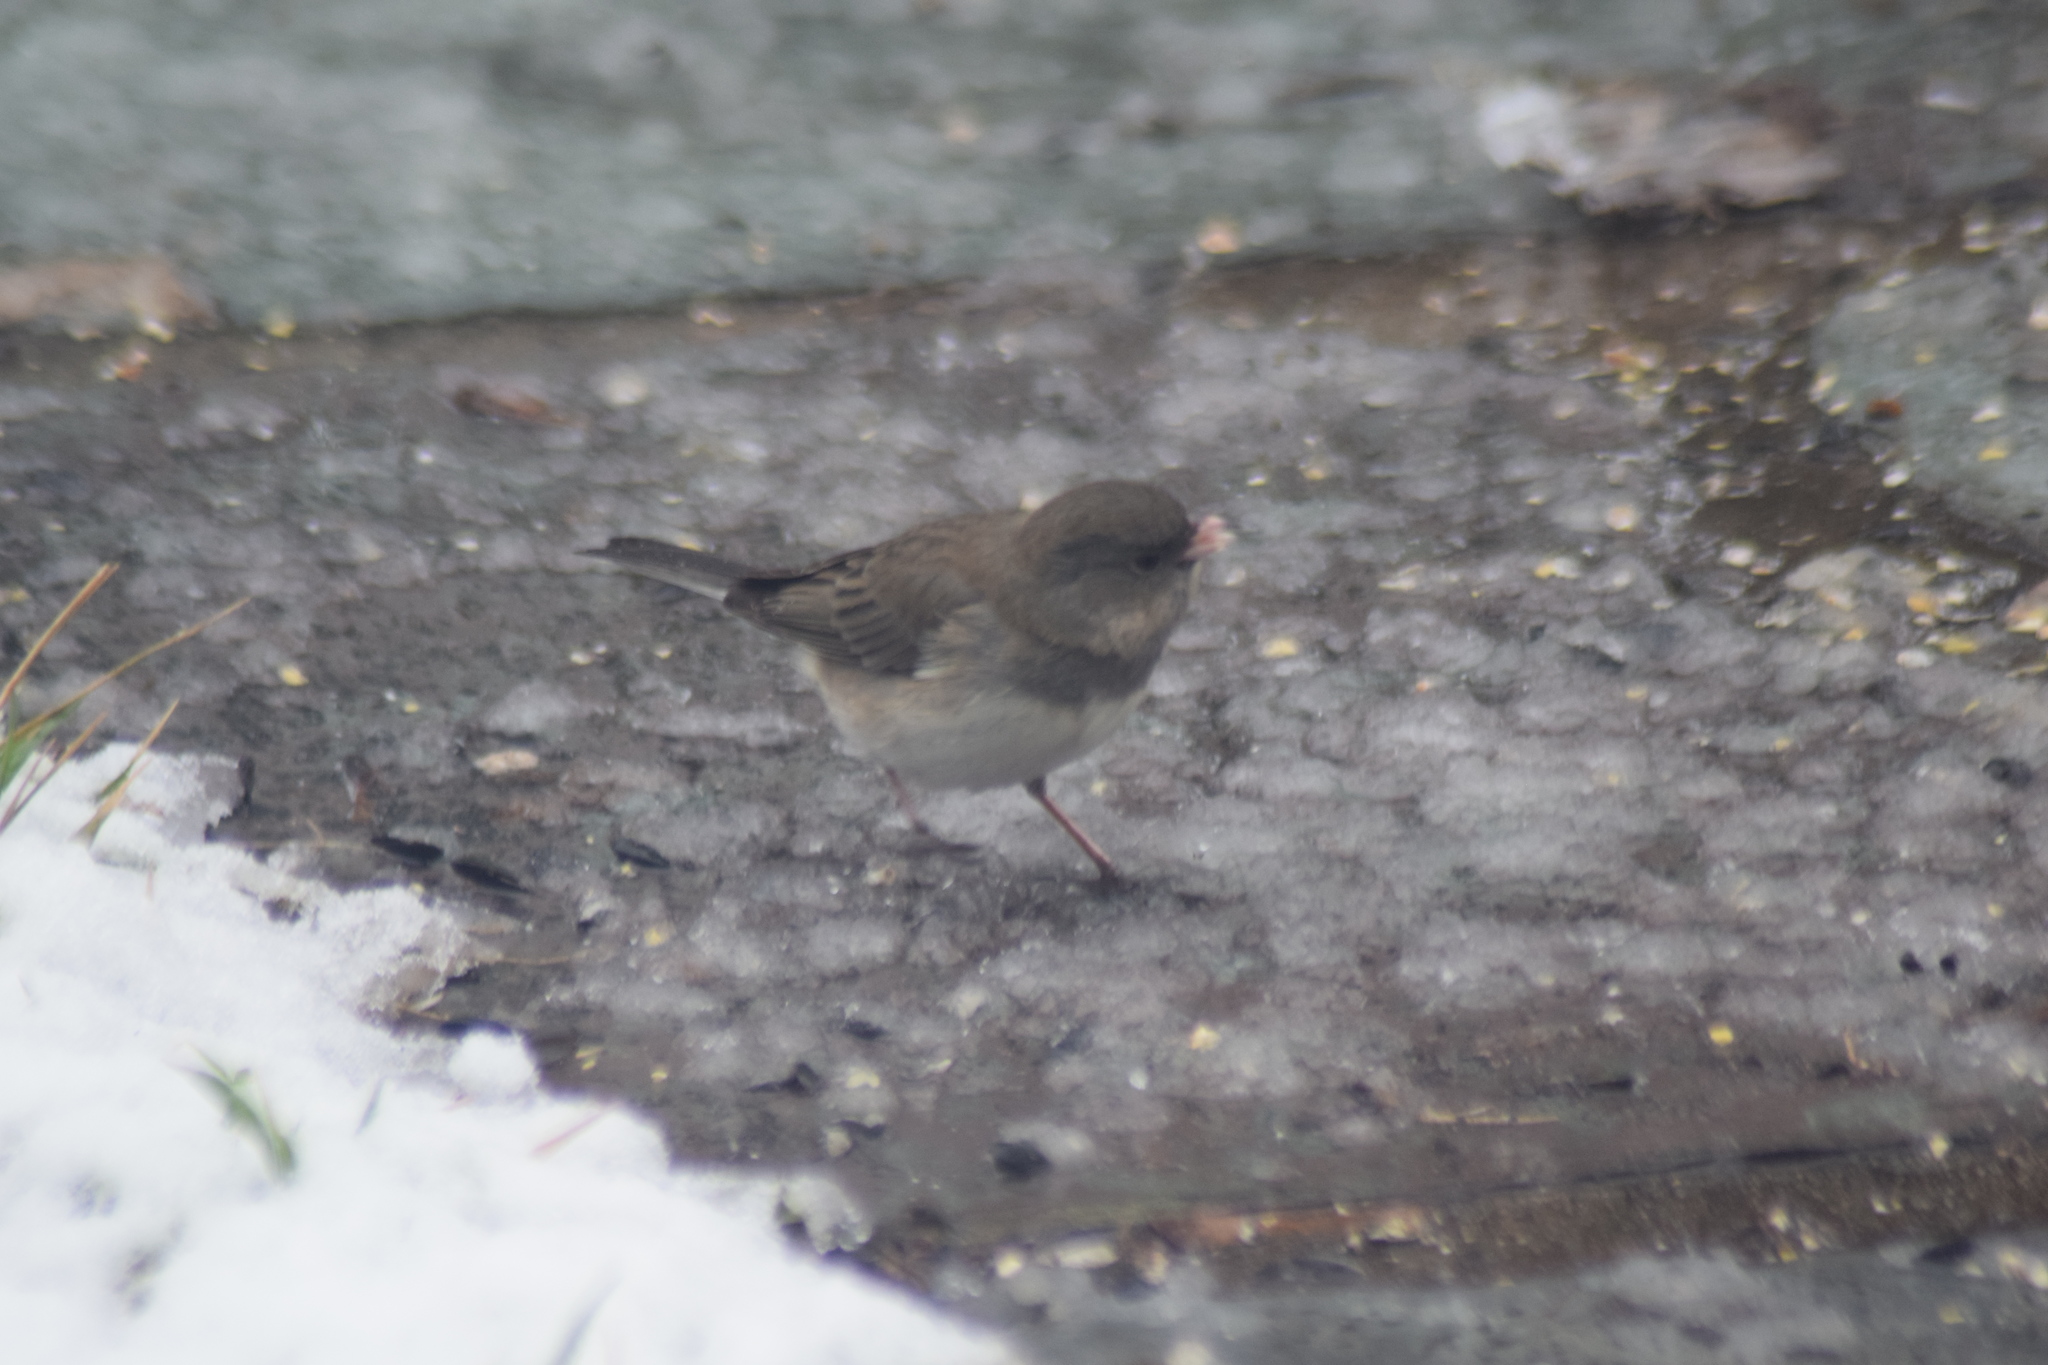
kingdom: Animalia
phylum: Chordata
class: Aves
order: Passeriformes
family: Passerellidae
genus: Junco
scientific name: Junco hyemalis
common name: Dark-eyed junco
